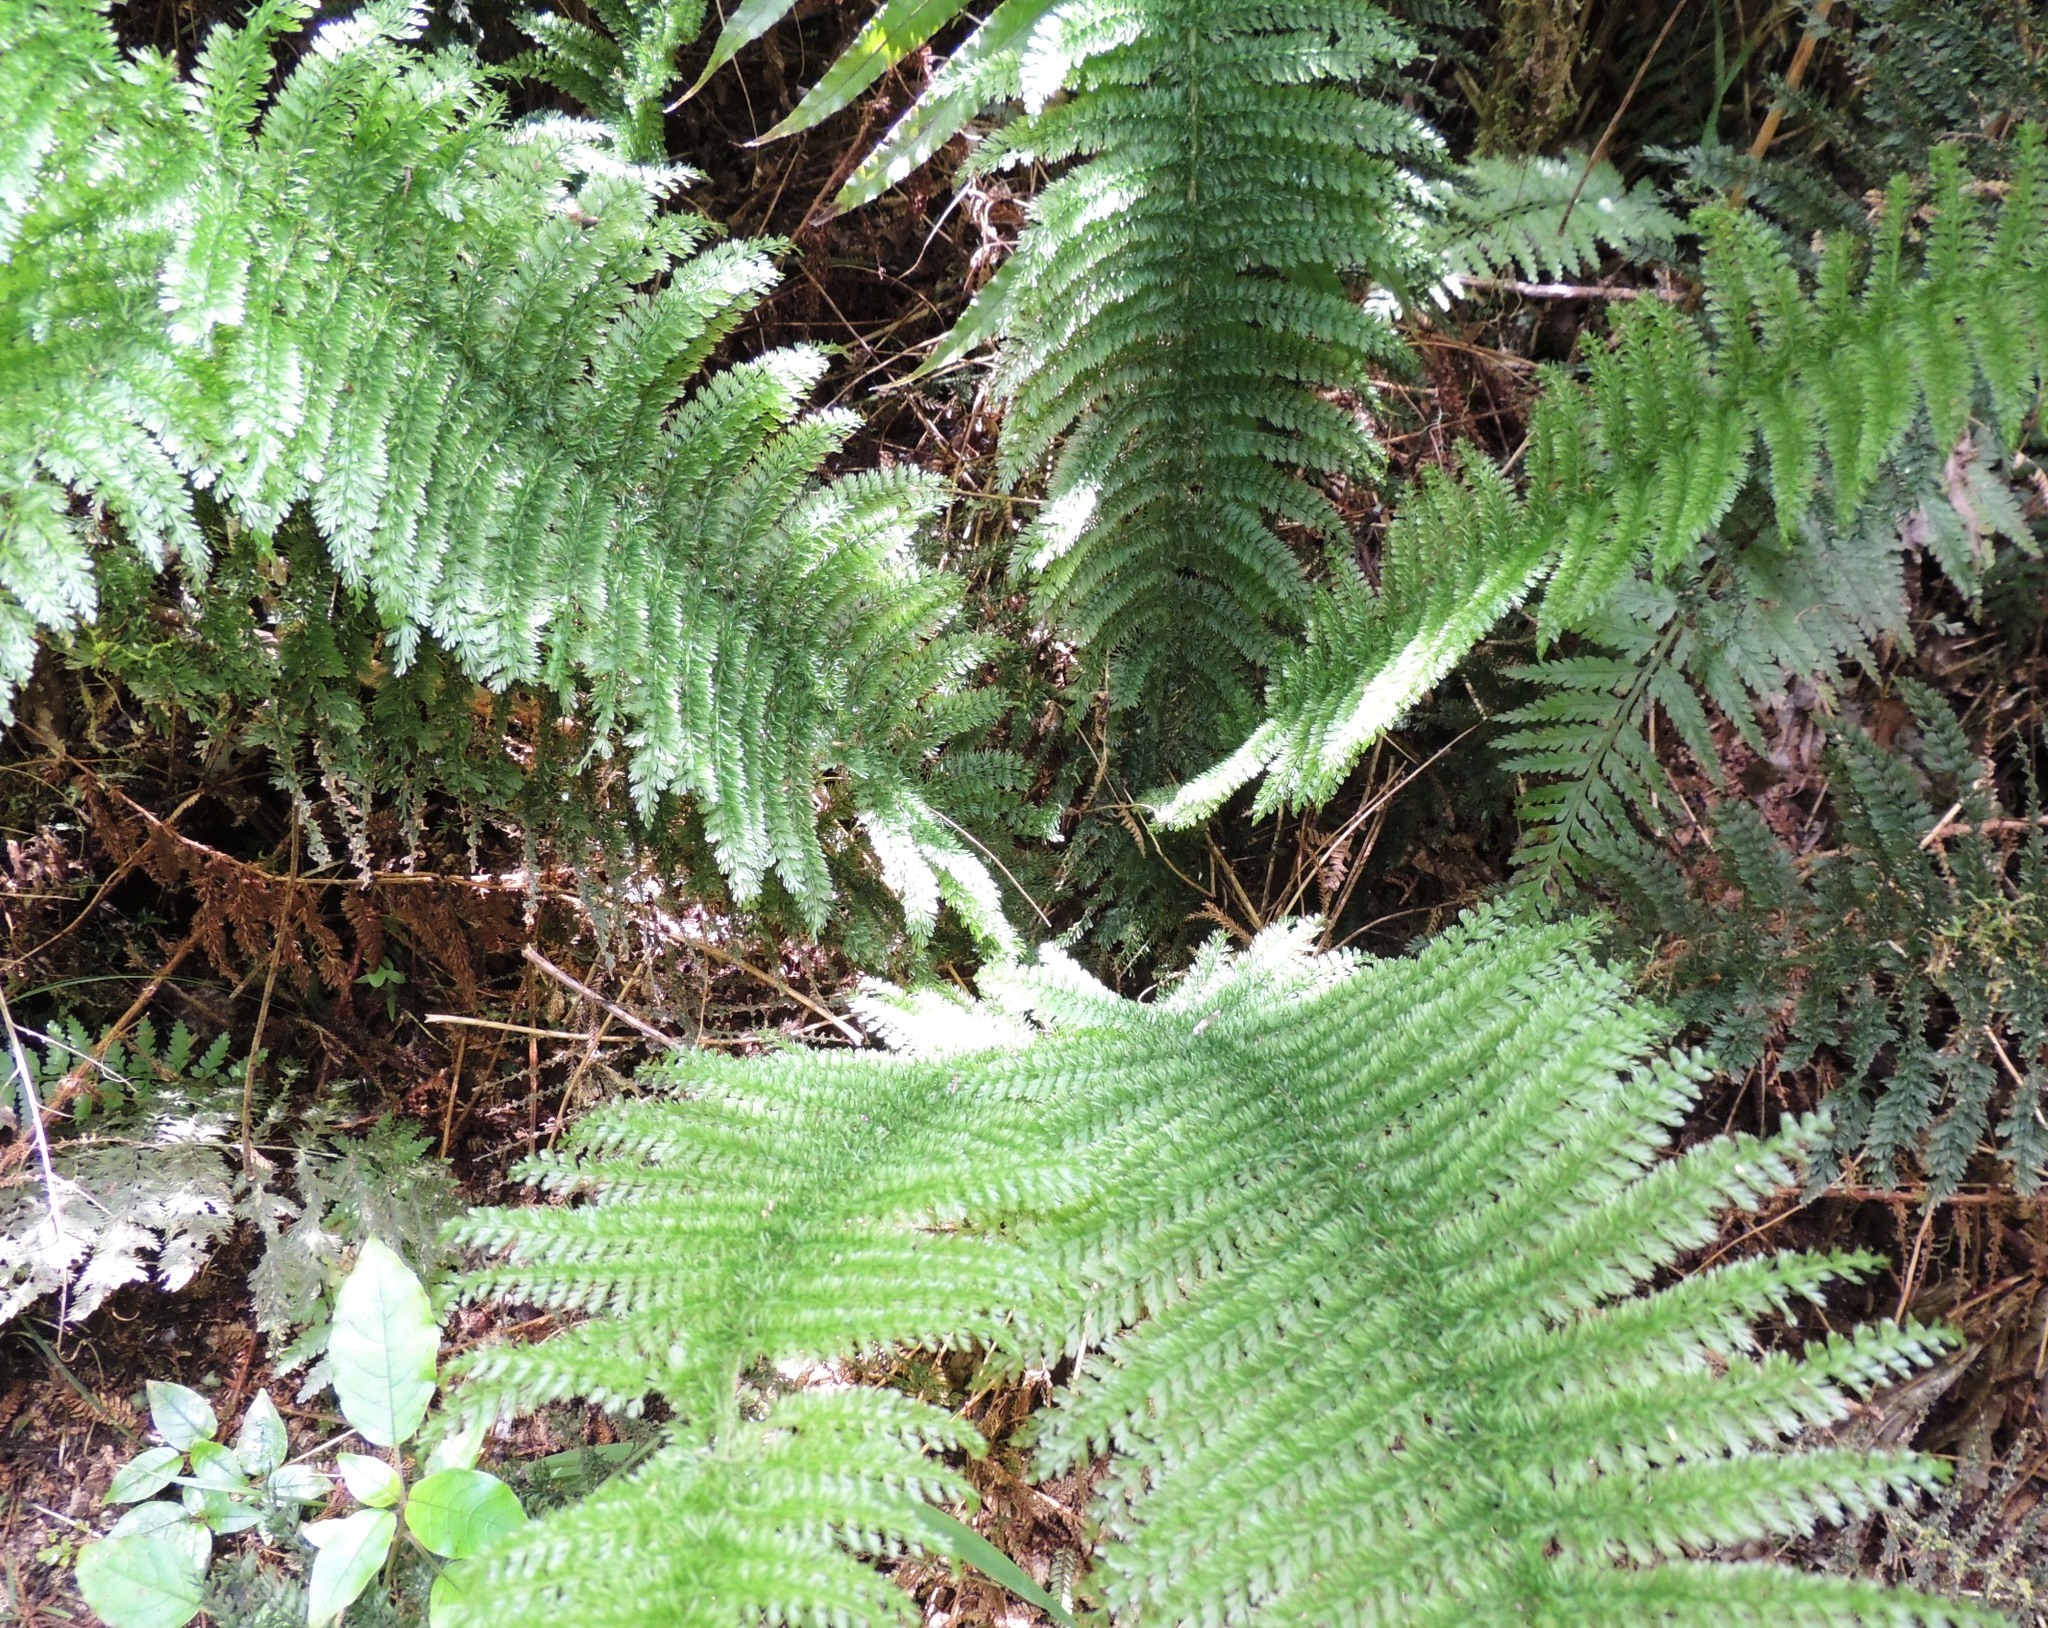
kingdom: Plantae
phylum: Tracheophyta
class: Polypodiopsida
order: Osmundales
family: Osmundaceae
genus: Leptopteris
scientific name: Leptopteris superba
